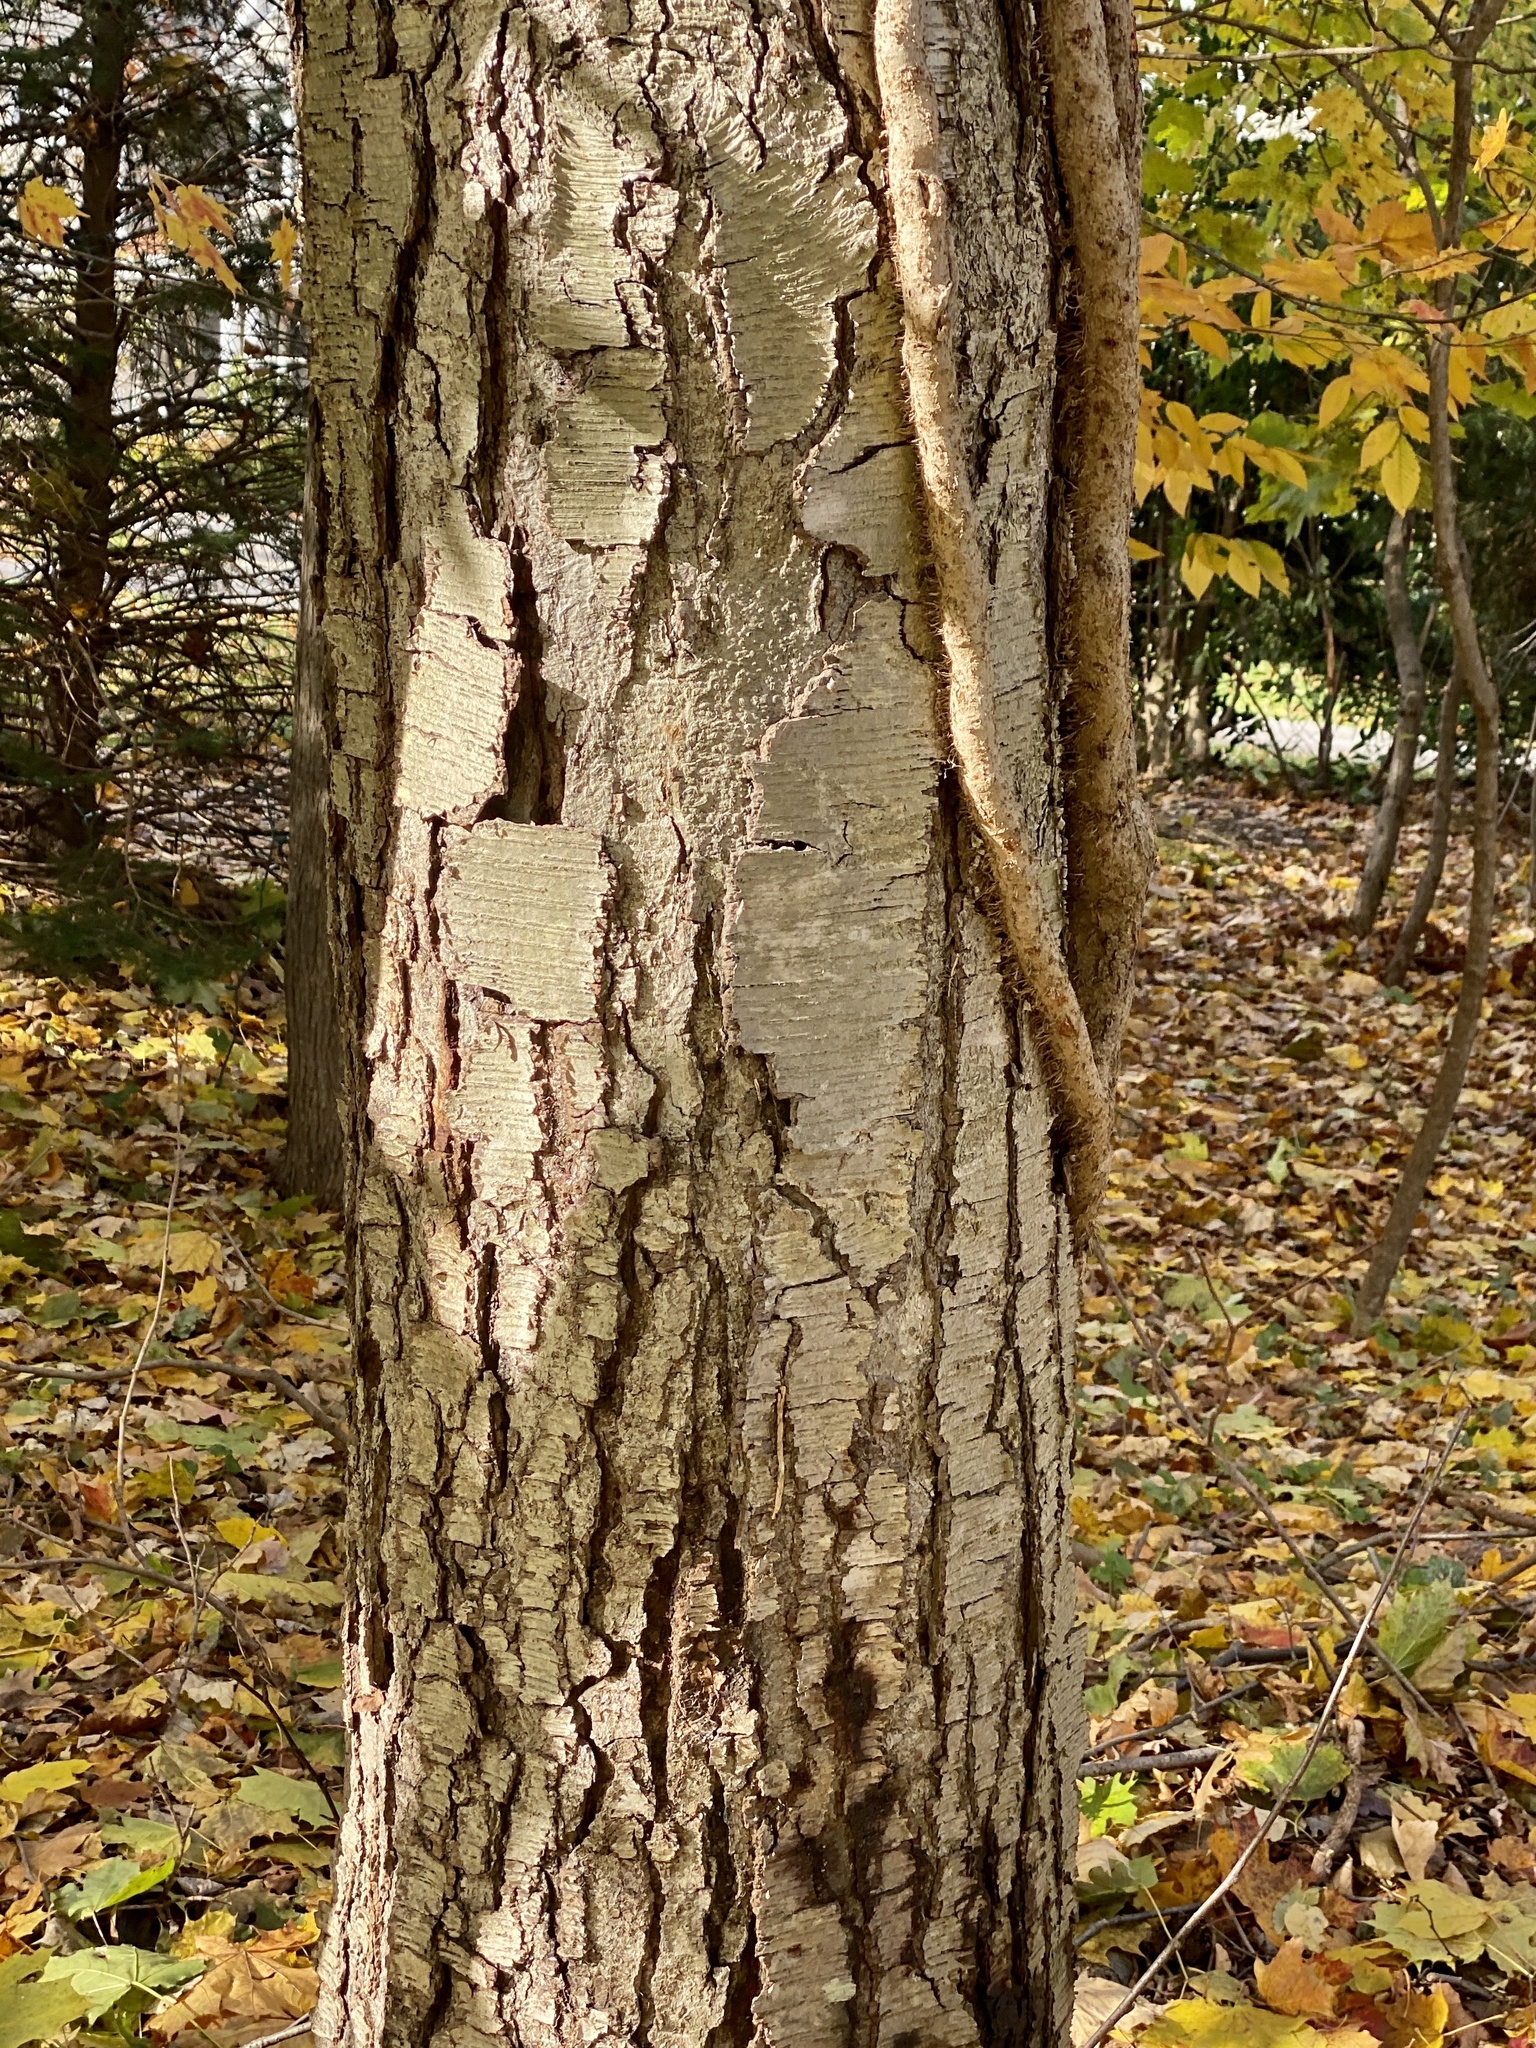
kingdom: Plantae
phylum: Tracheophyta
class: Magnoliopsida
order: Fagales
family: Betulaceae
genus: Betula
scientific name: Betula lenta
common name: Black birch
